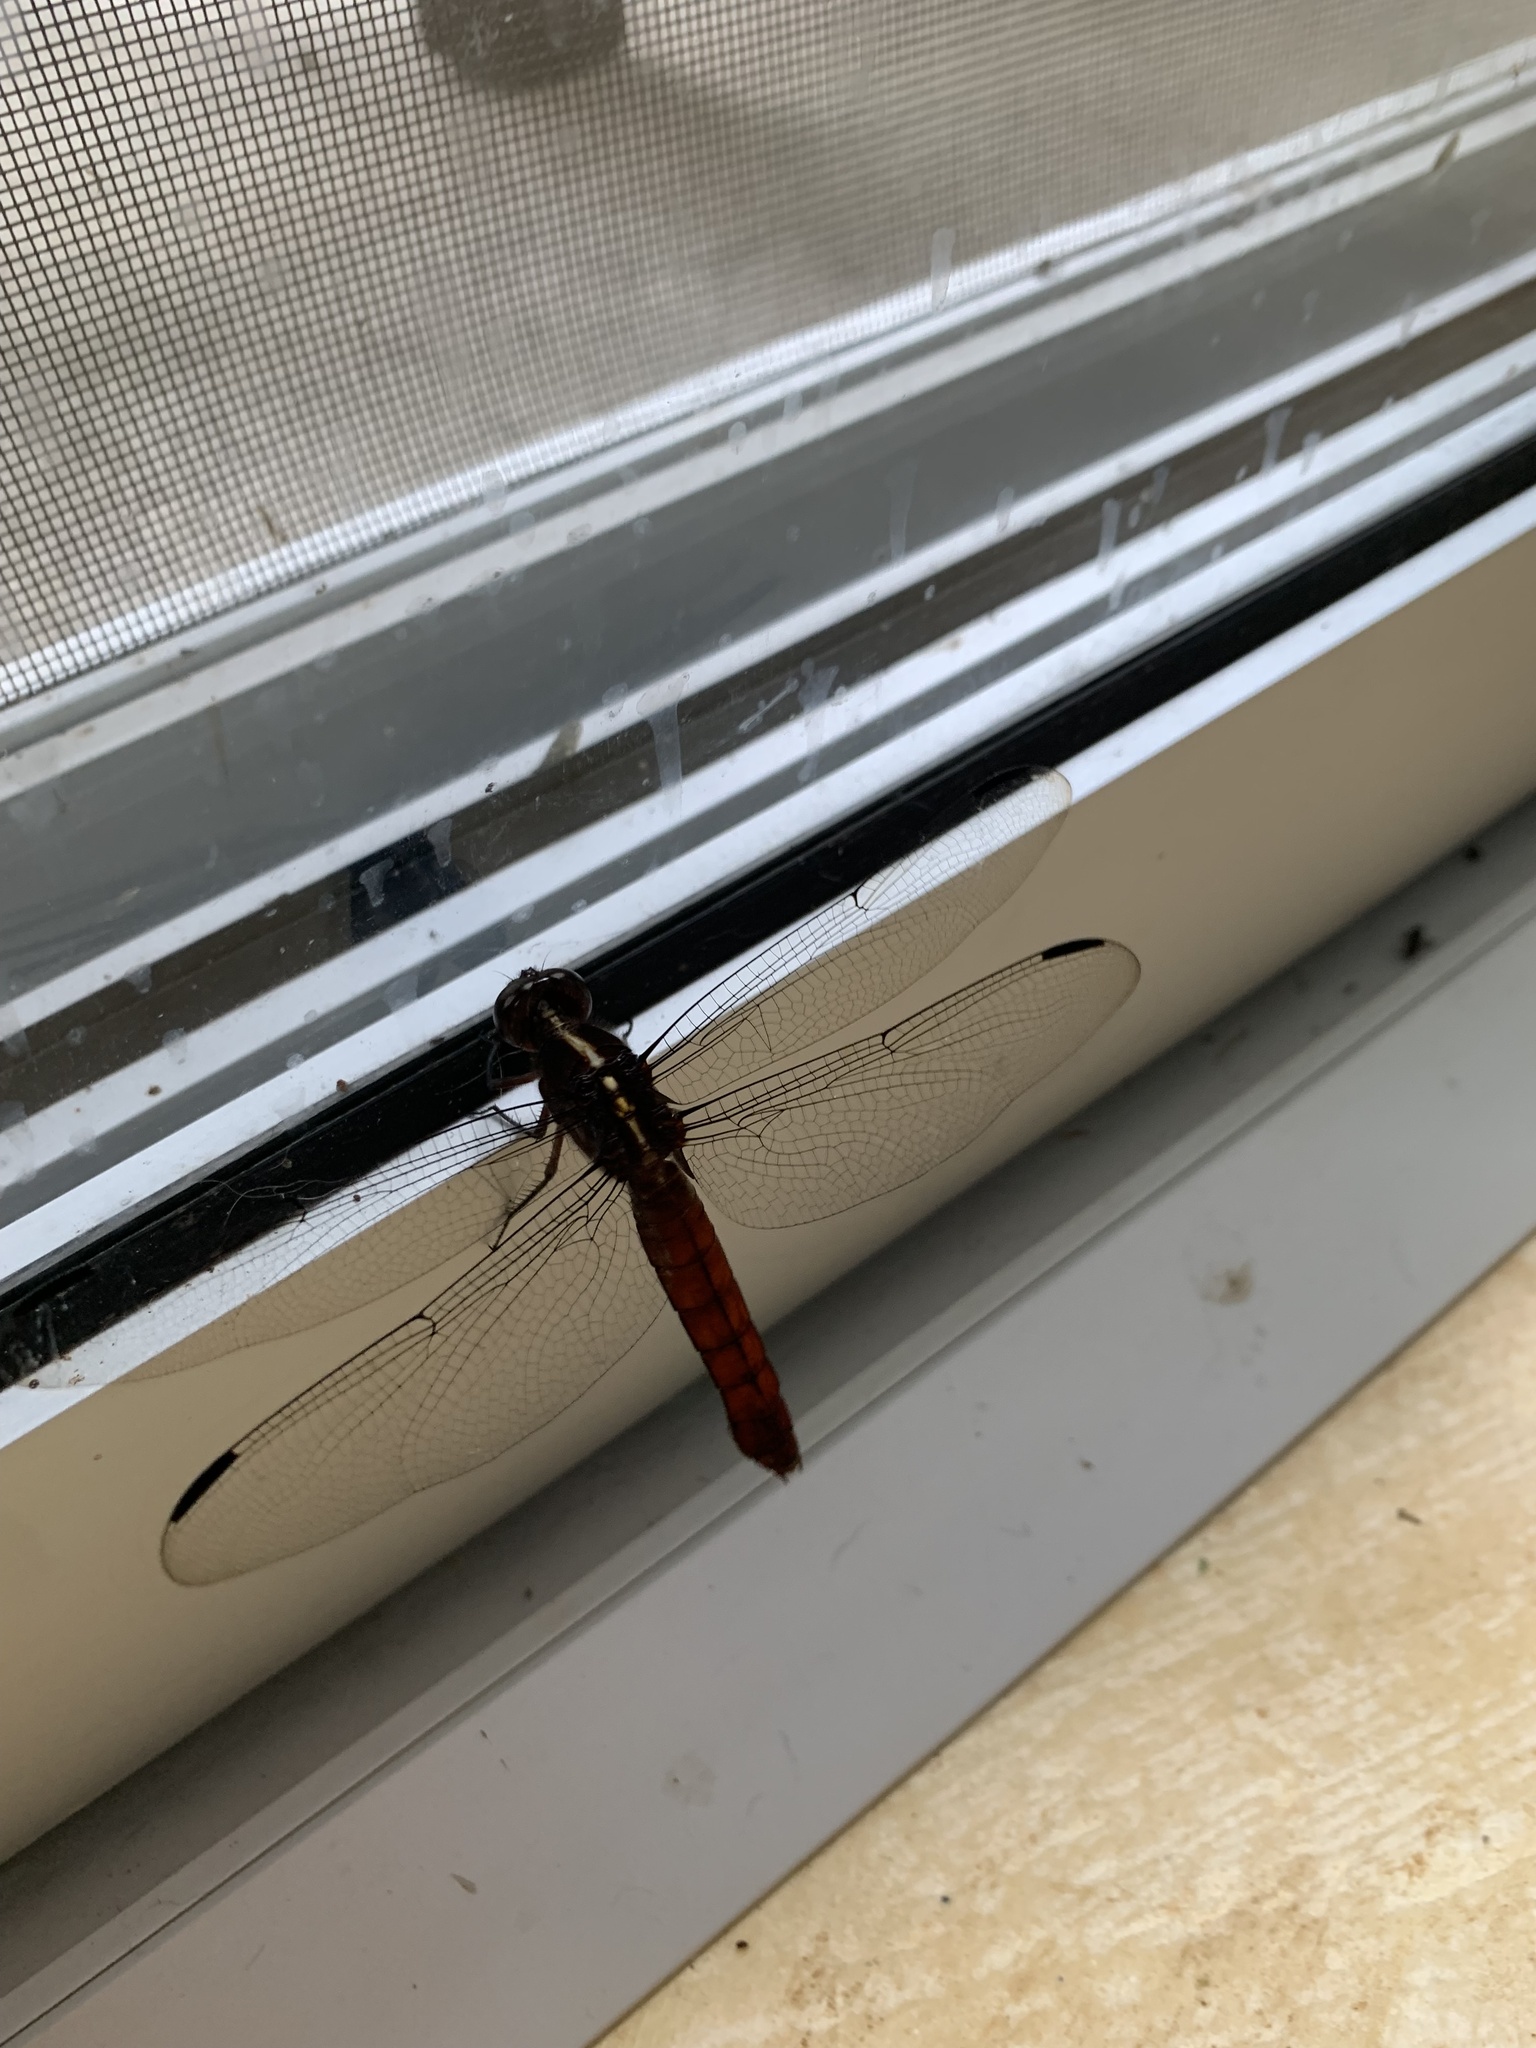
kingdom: Animalia
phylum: Arthropoda
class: Insecta
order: Odonata
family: Libellulidae
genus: Libellula
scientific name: Libellula herculea
